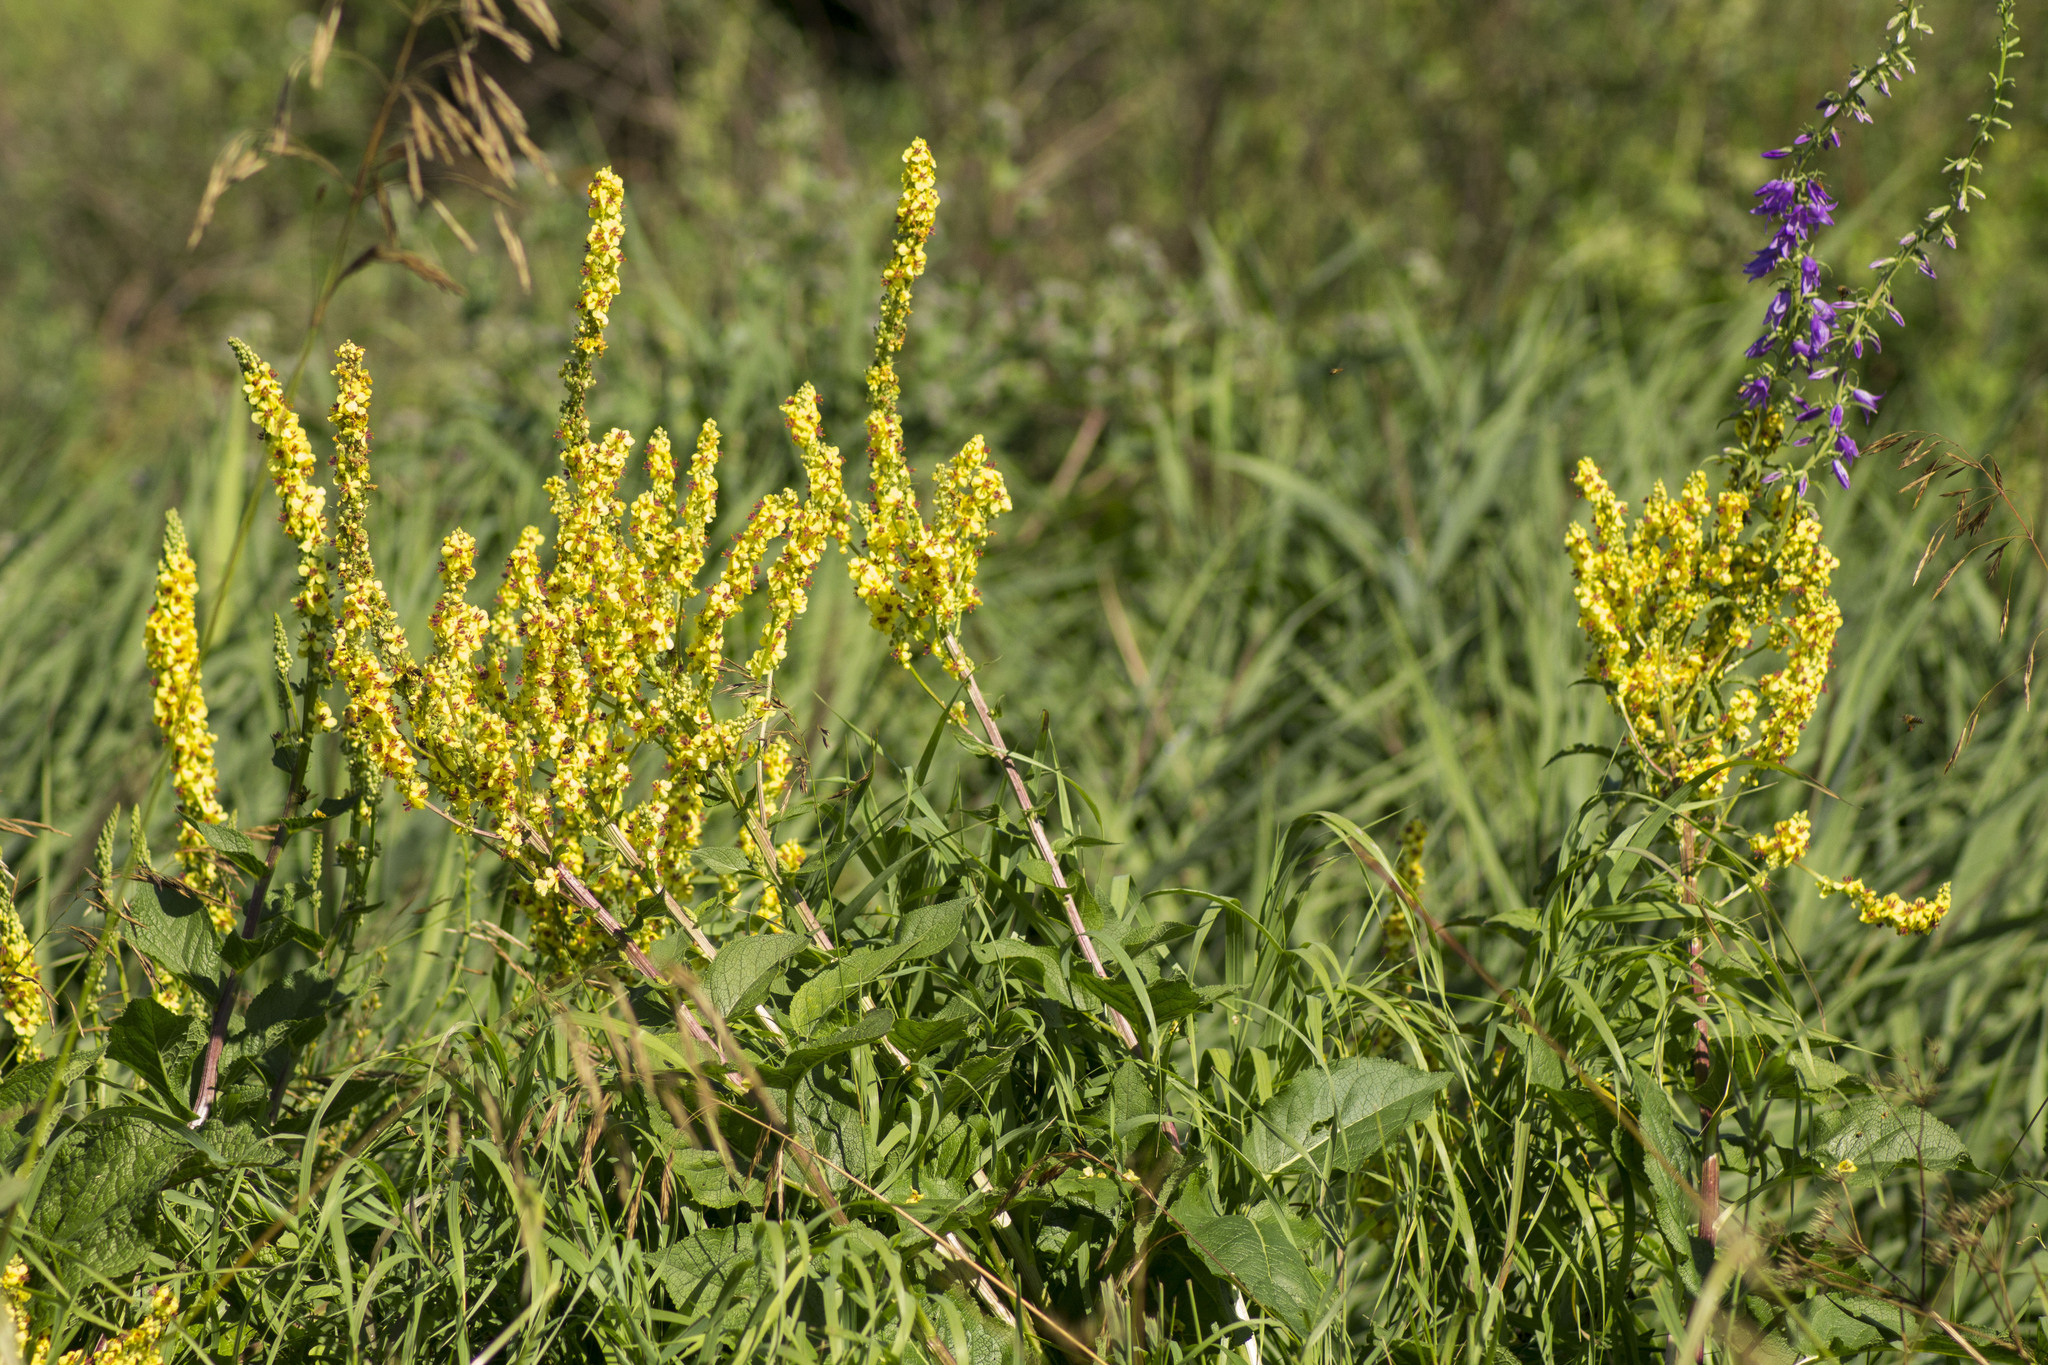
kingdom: Plantae
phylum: Tracheophyta
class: Magnoliopsida
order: Lamiales
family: Scrophulariaceae
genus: Verbascum
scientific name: Verbascum nigrum
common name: Dark mullein
